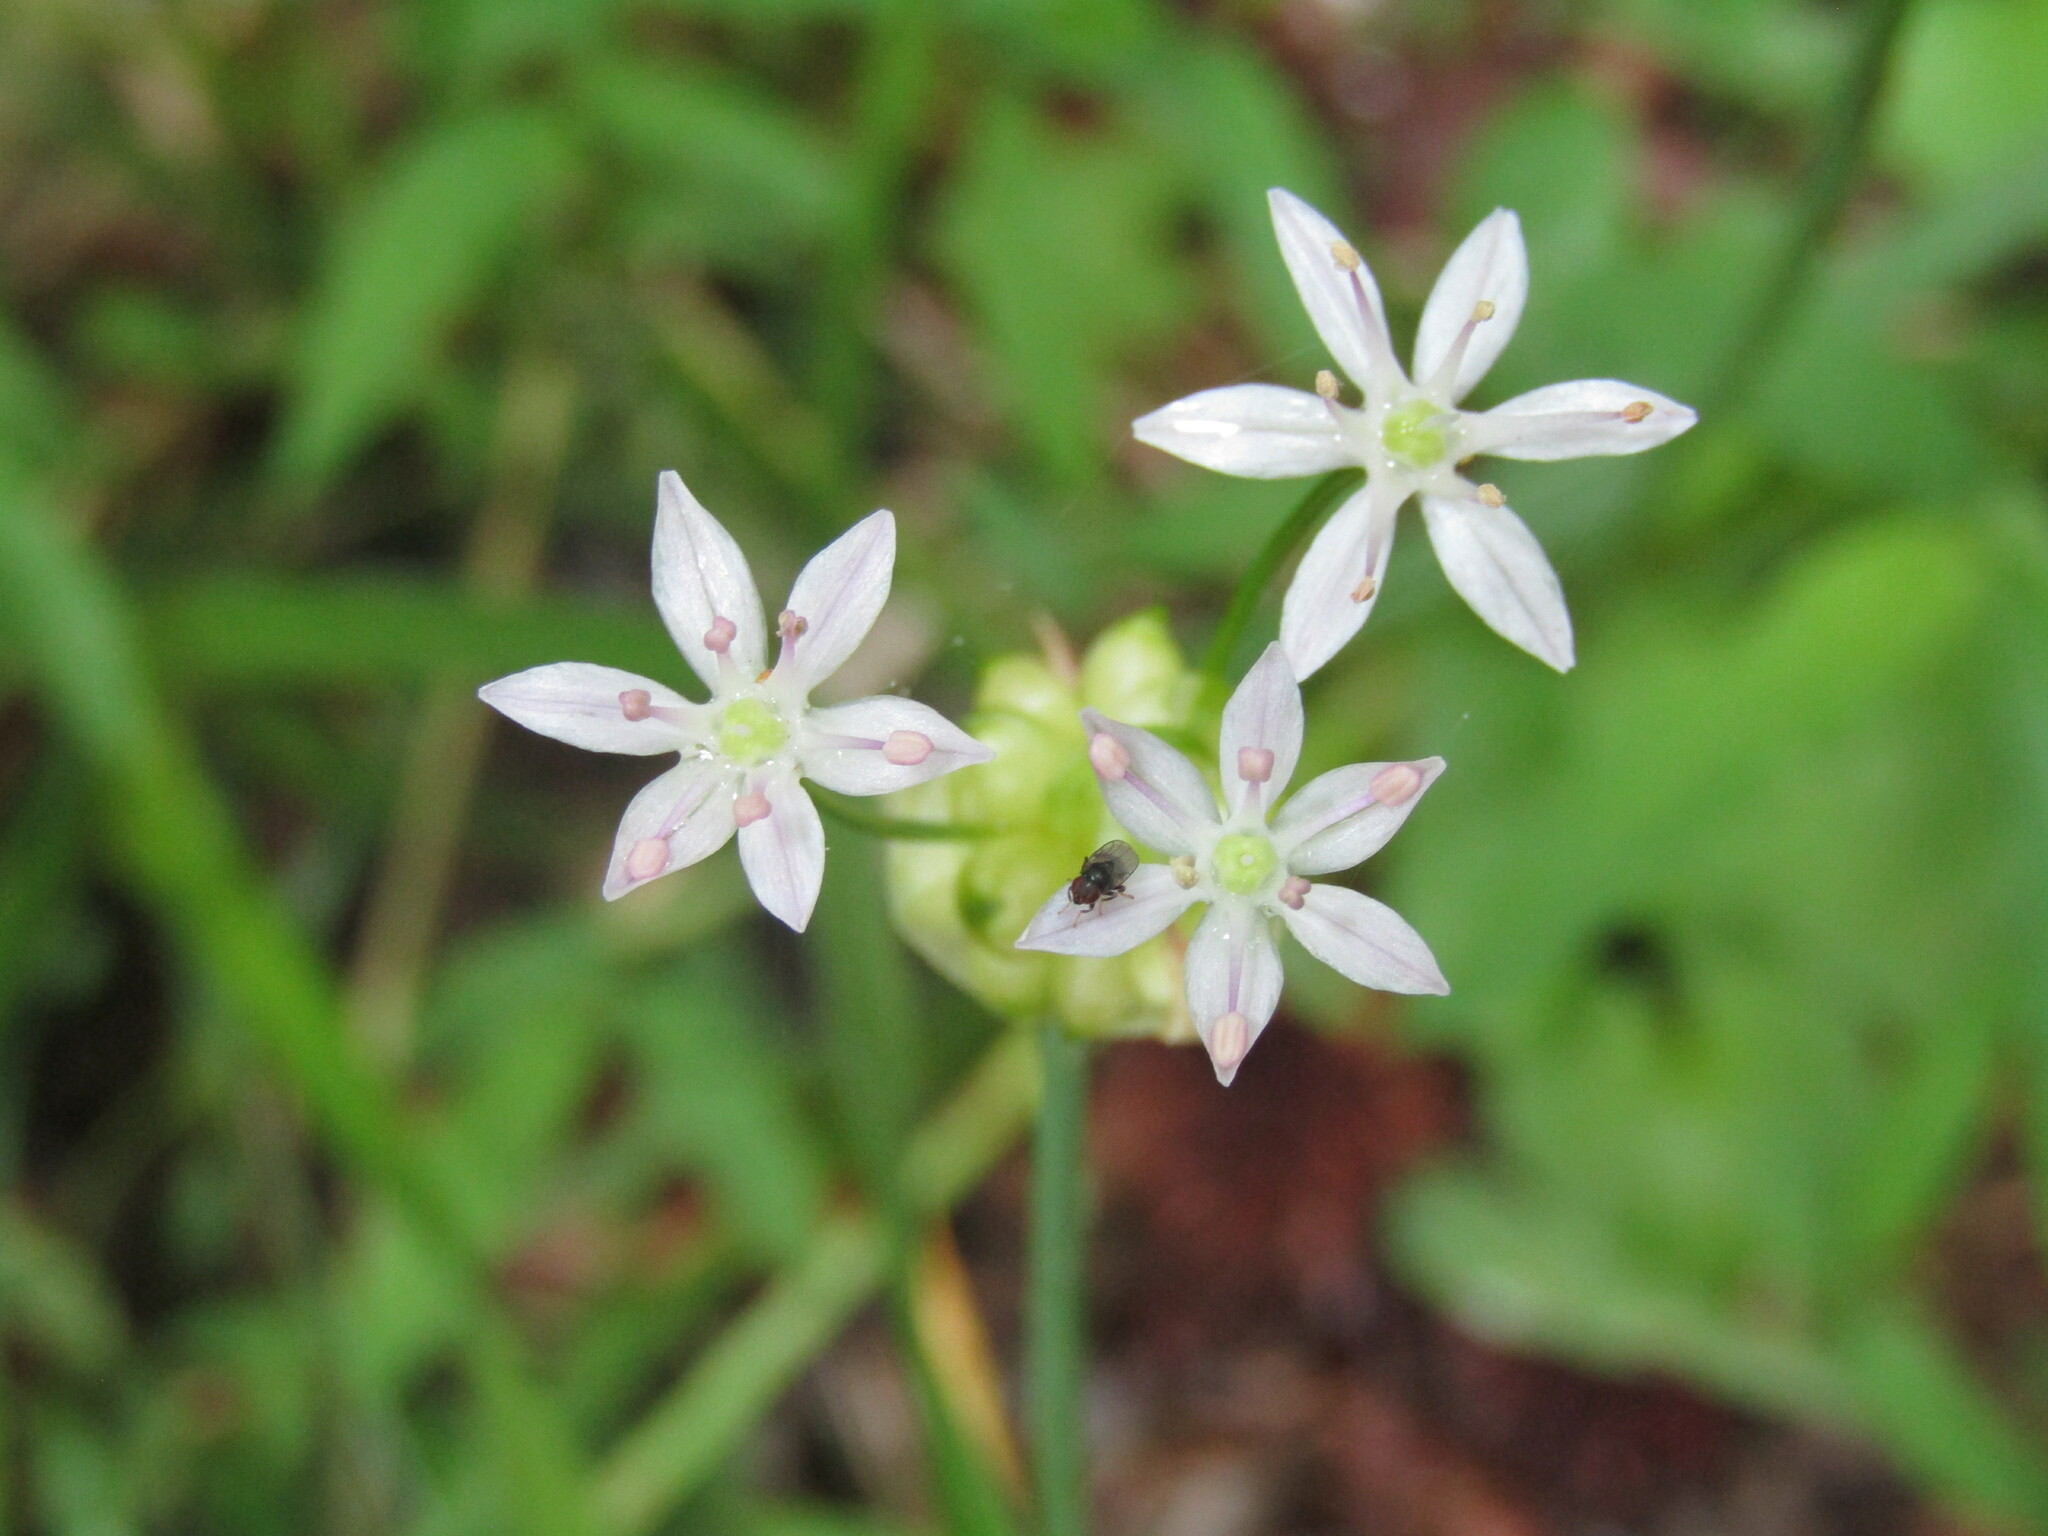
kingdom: Plantae
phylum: Tracheophyta
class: Liliopsida
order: Asparagales
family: Amaryllidaceae
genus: Allium
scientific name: Allium canadense
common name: Meadow garlic
